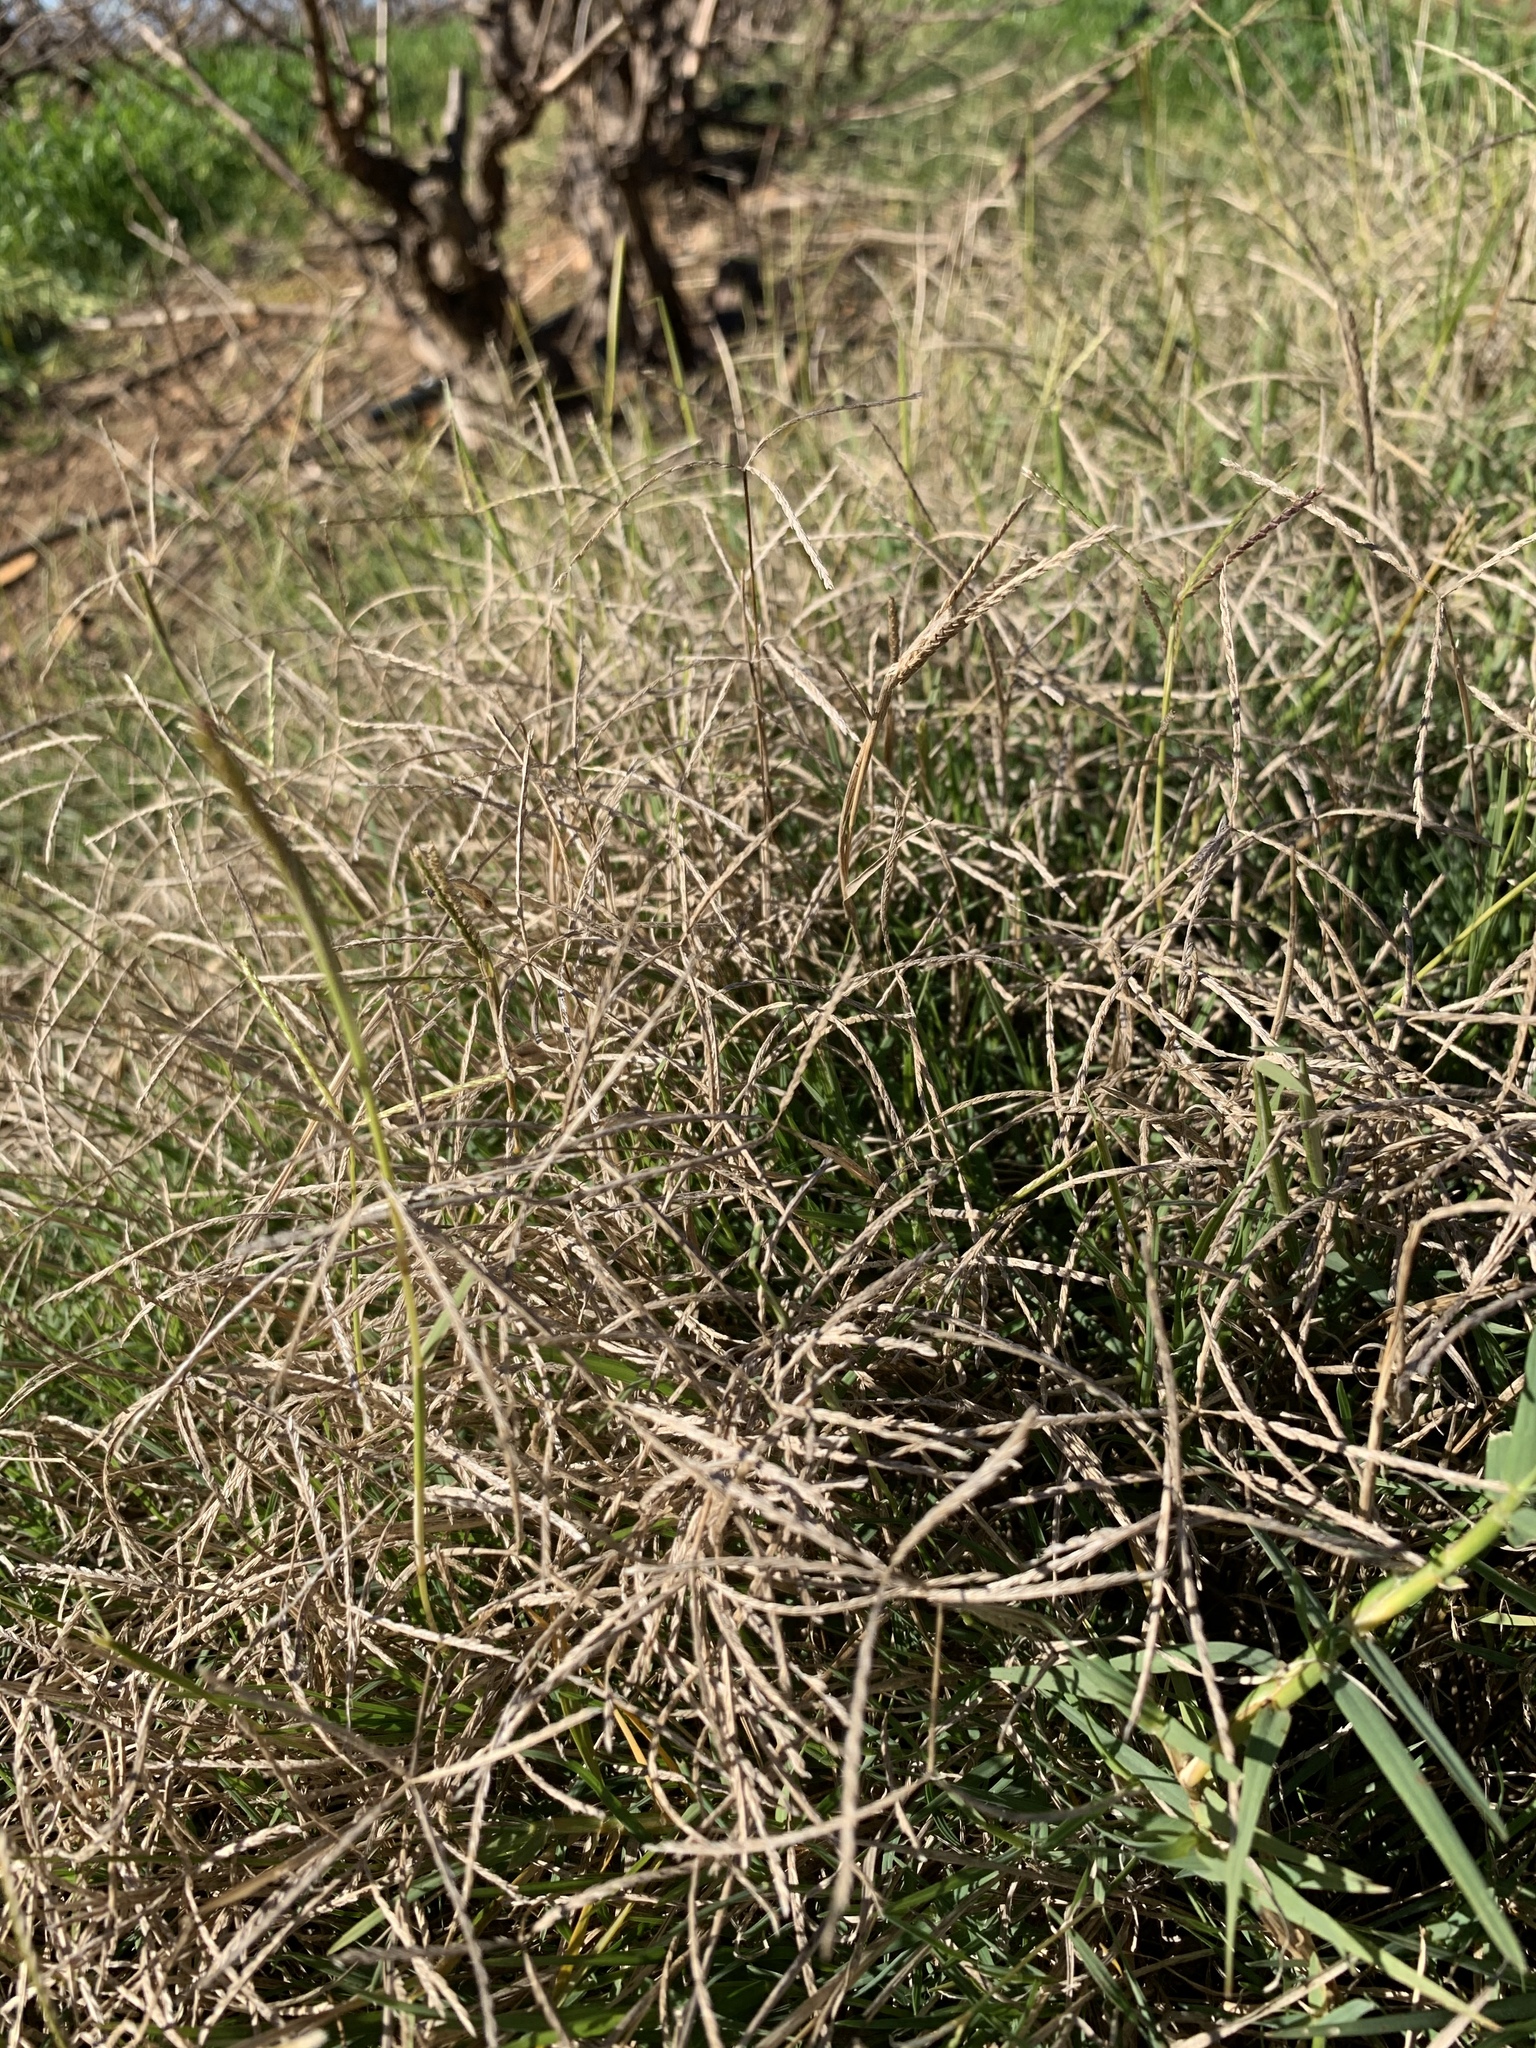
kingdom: Plantae
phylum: Tracheophyta
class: Liliopsida
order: Poales
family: Poaceae
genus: Cynodon
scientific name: Cynodon dactylon
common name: Bermuda grass
